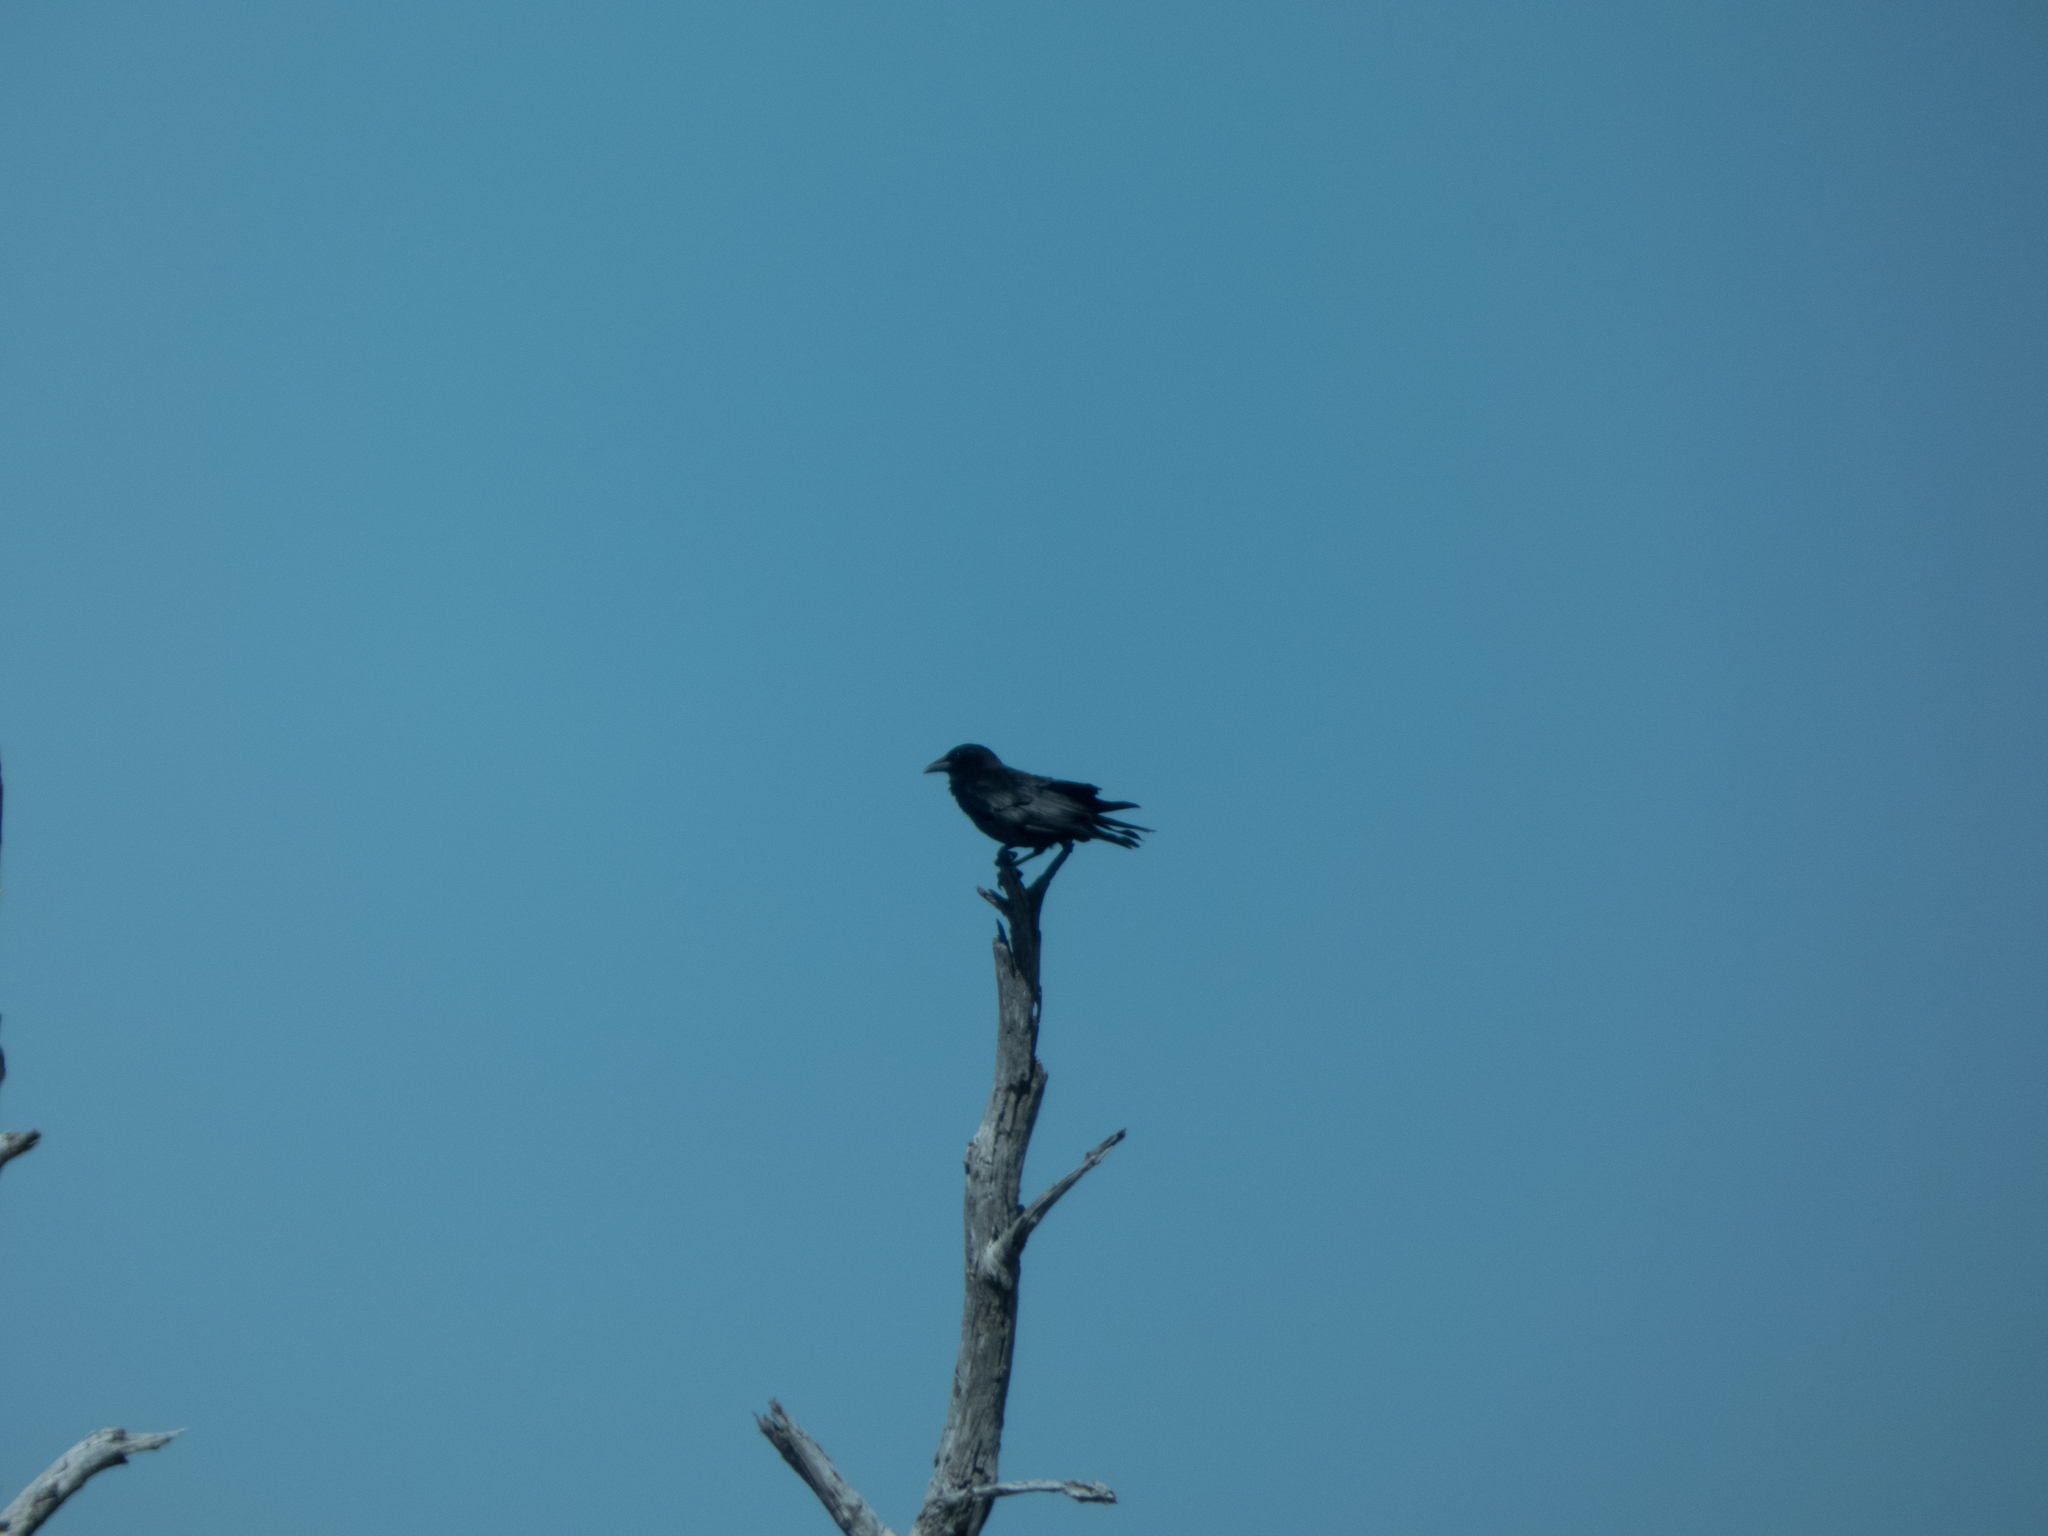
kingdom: Animalia
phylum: Chordata
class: Aves
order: Passeriformes
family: Corvidae
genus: Corvus
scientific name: Corvus ossifragus
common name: Fish crow
